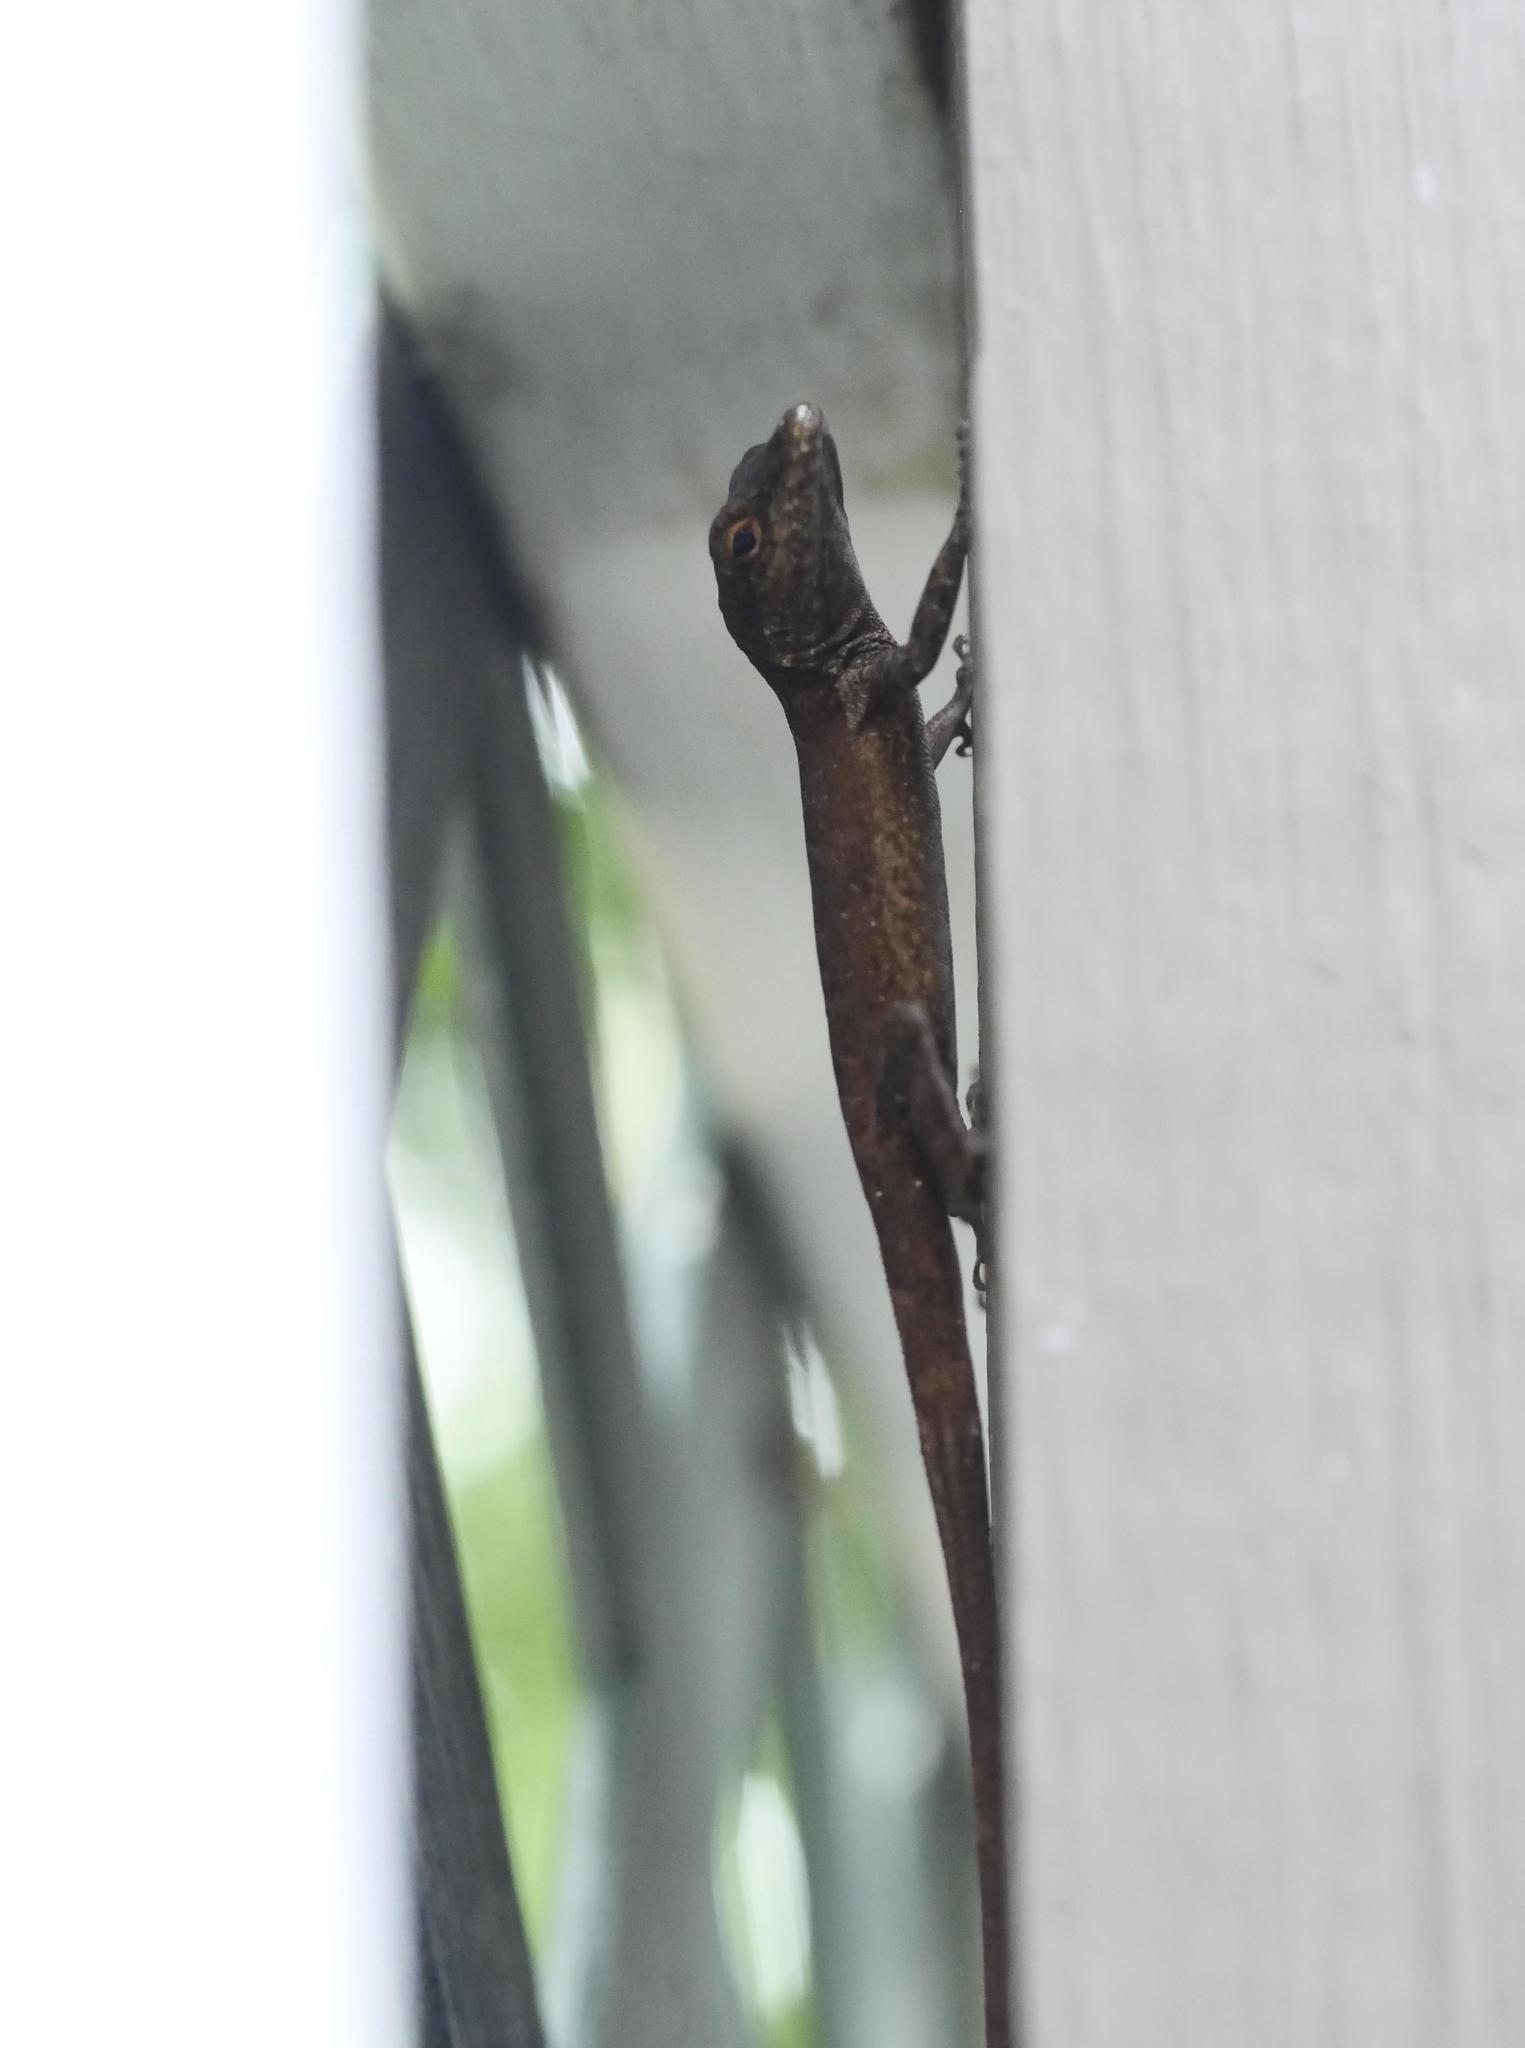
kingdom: Animalia
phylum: Chordata
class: Squamata
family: Dactyloidae
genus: Anolis
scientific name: Anolis scriptus
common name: Silver key anole
